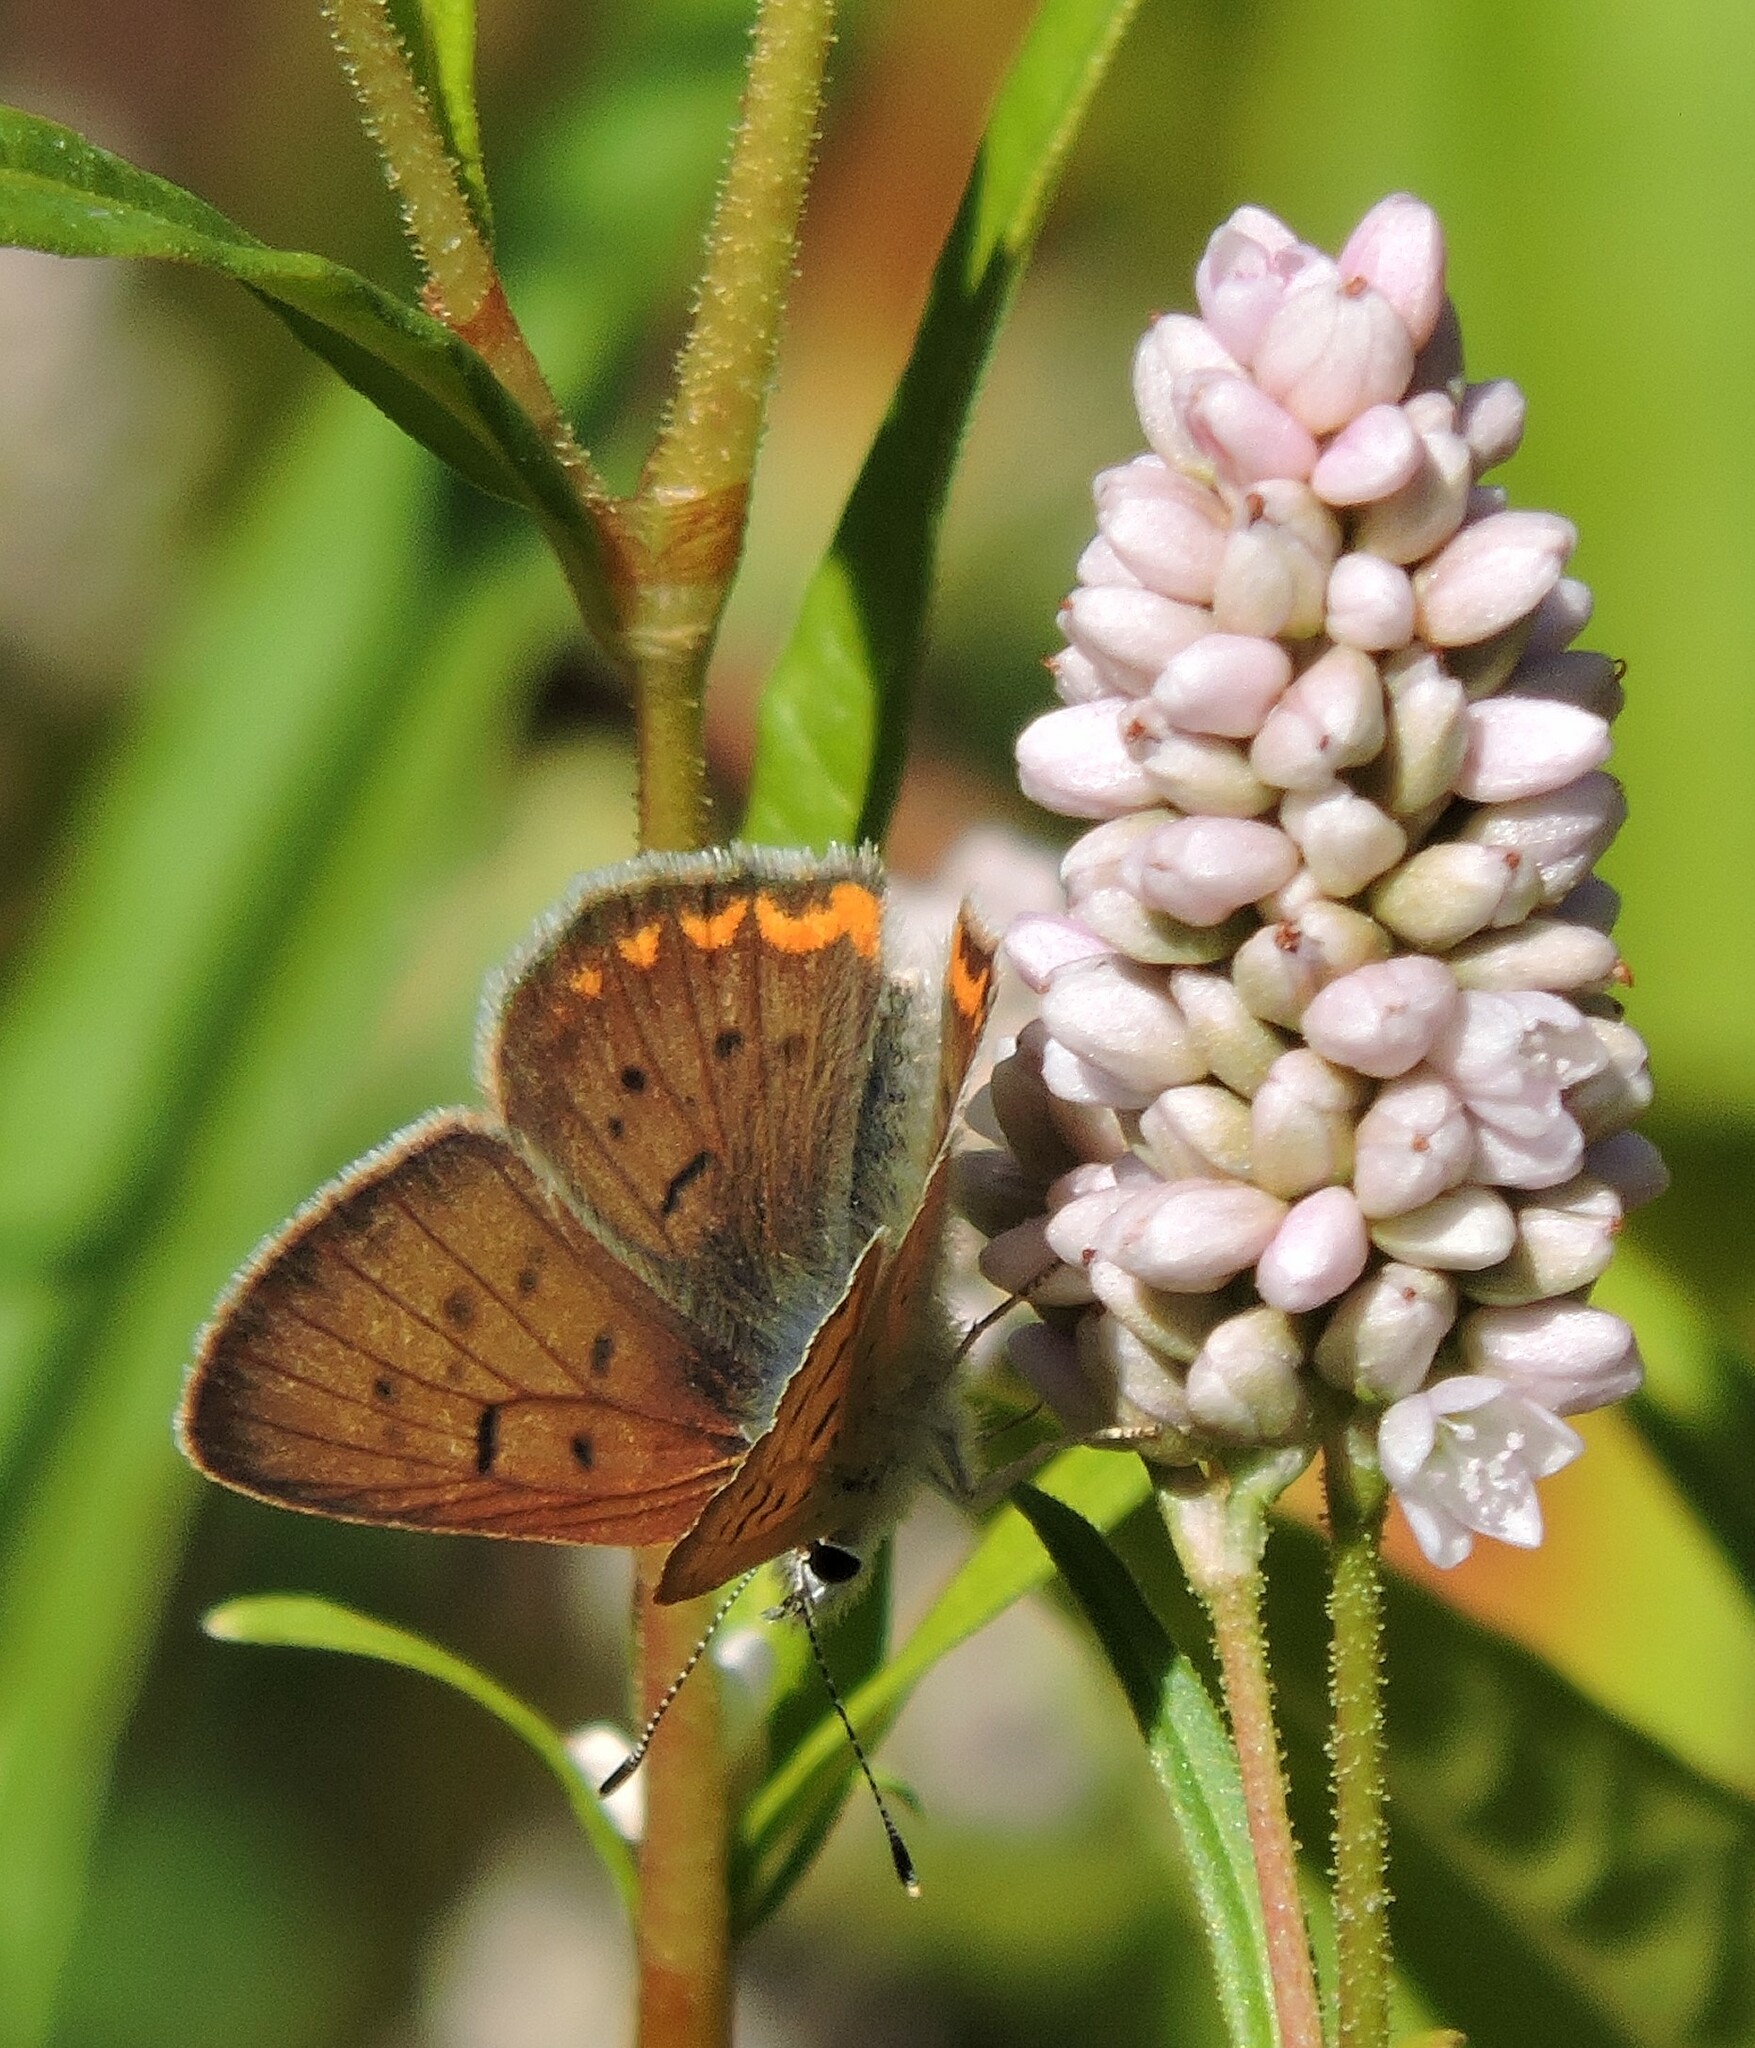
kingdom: Animalia
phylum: Arthropoda
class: Insecta
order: Lepidoptera
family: Lycaenidae
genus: Tharsalea
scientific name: Tharsalea helloides
